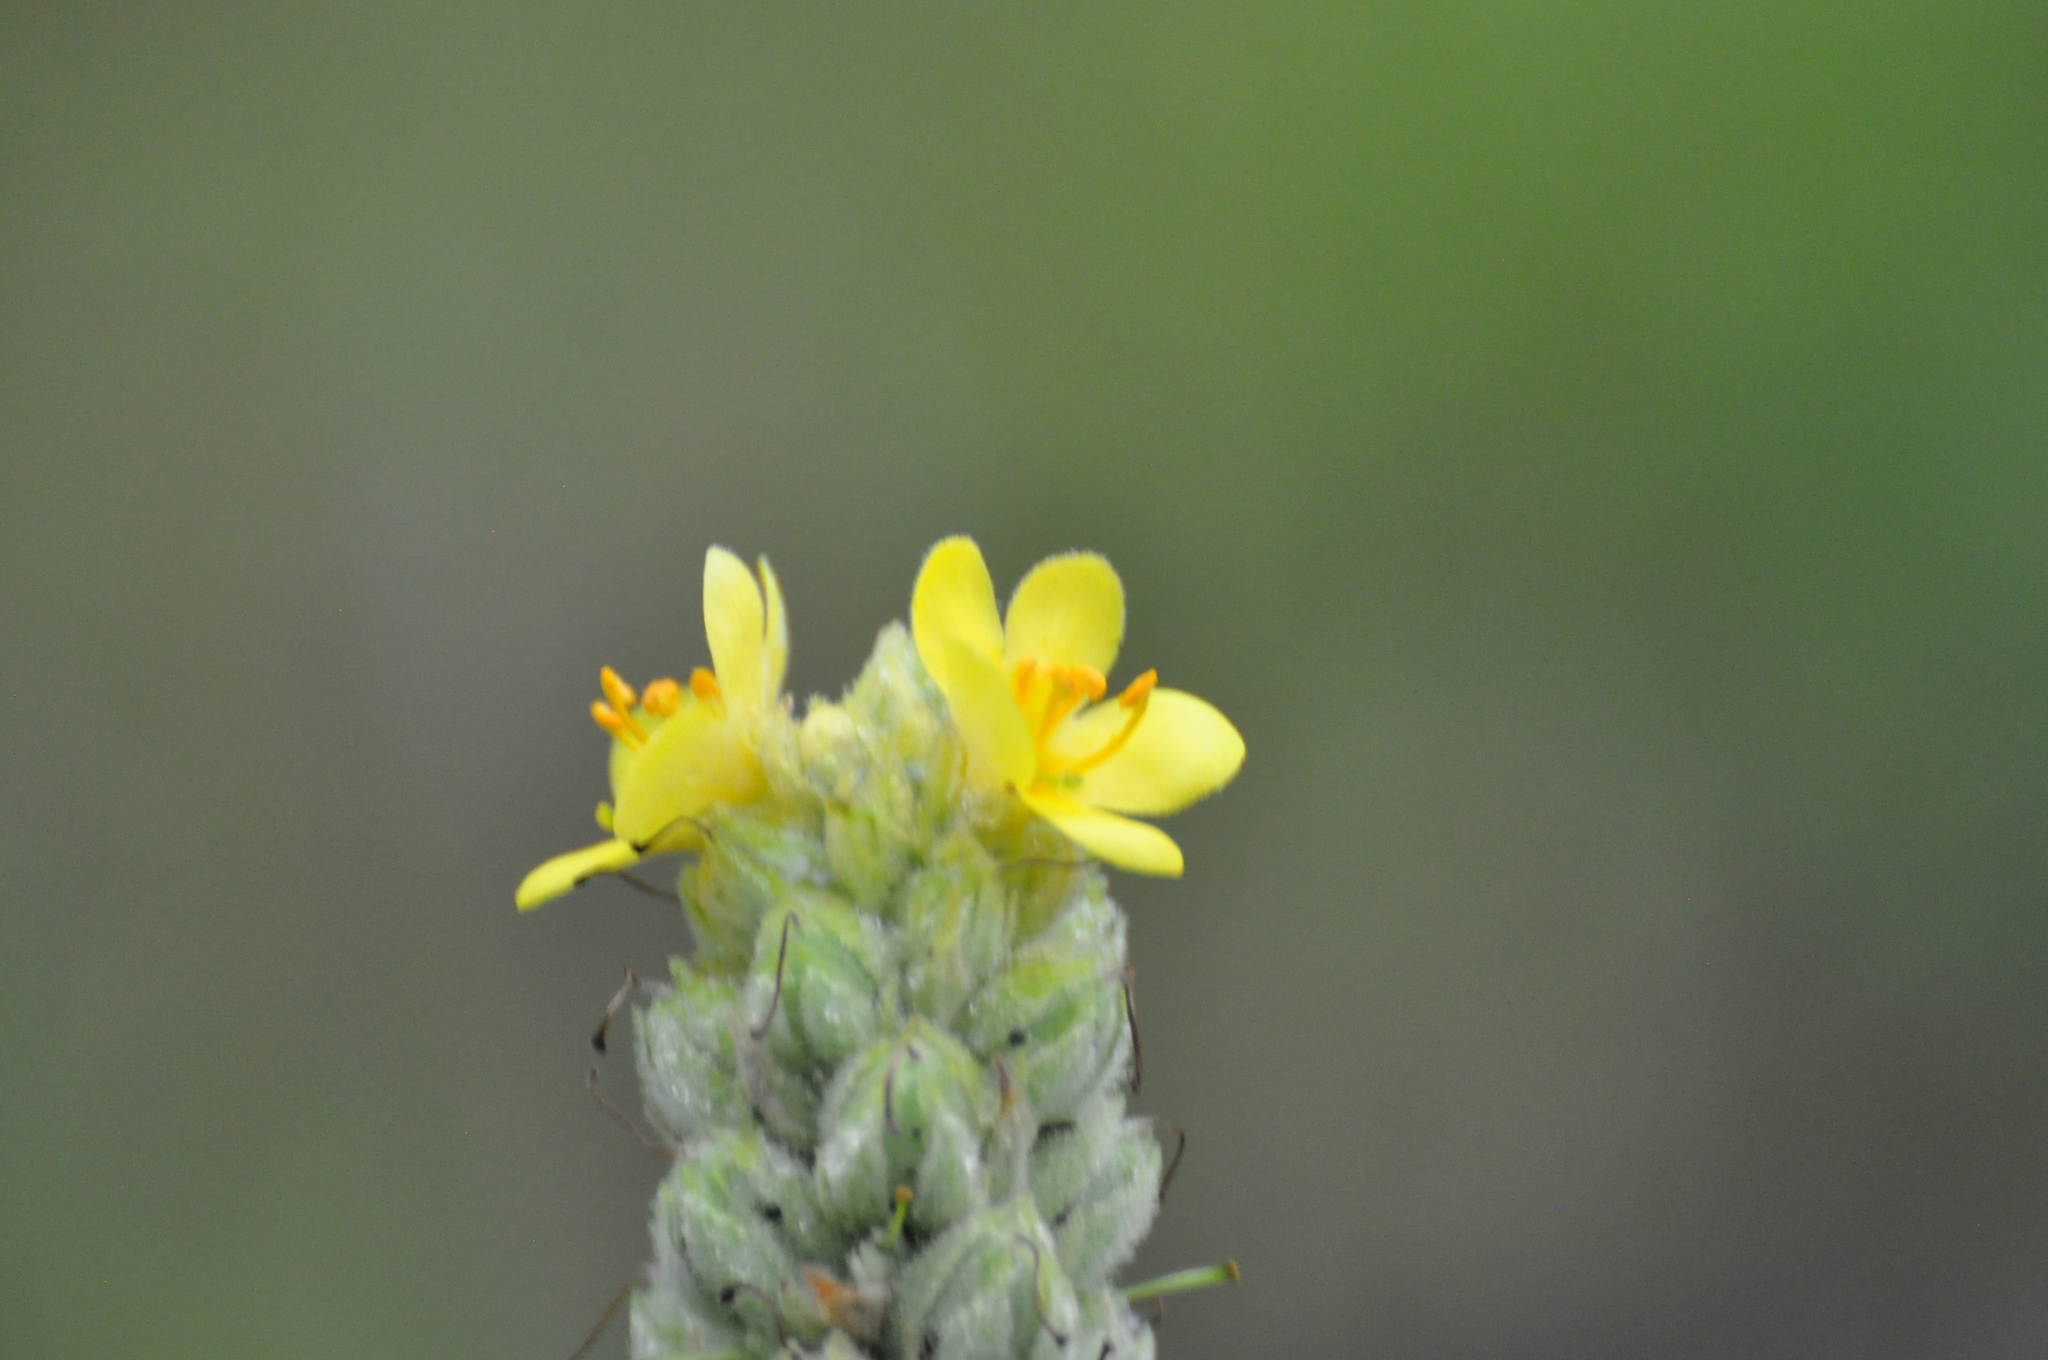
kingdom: Plantae
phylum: Tracheophyta
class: Magnoliopsida
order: Lamiales
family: Scrophulariaceae
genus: Verbascum
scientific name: Verbascum thapsus
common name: Common mullein
